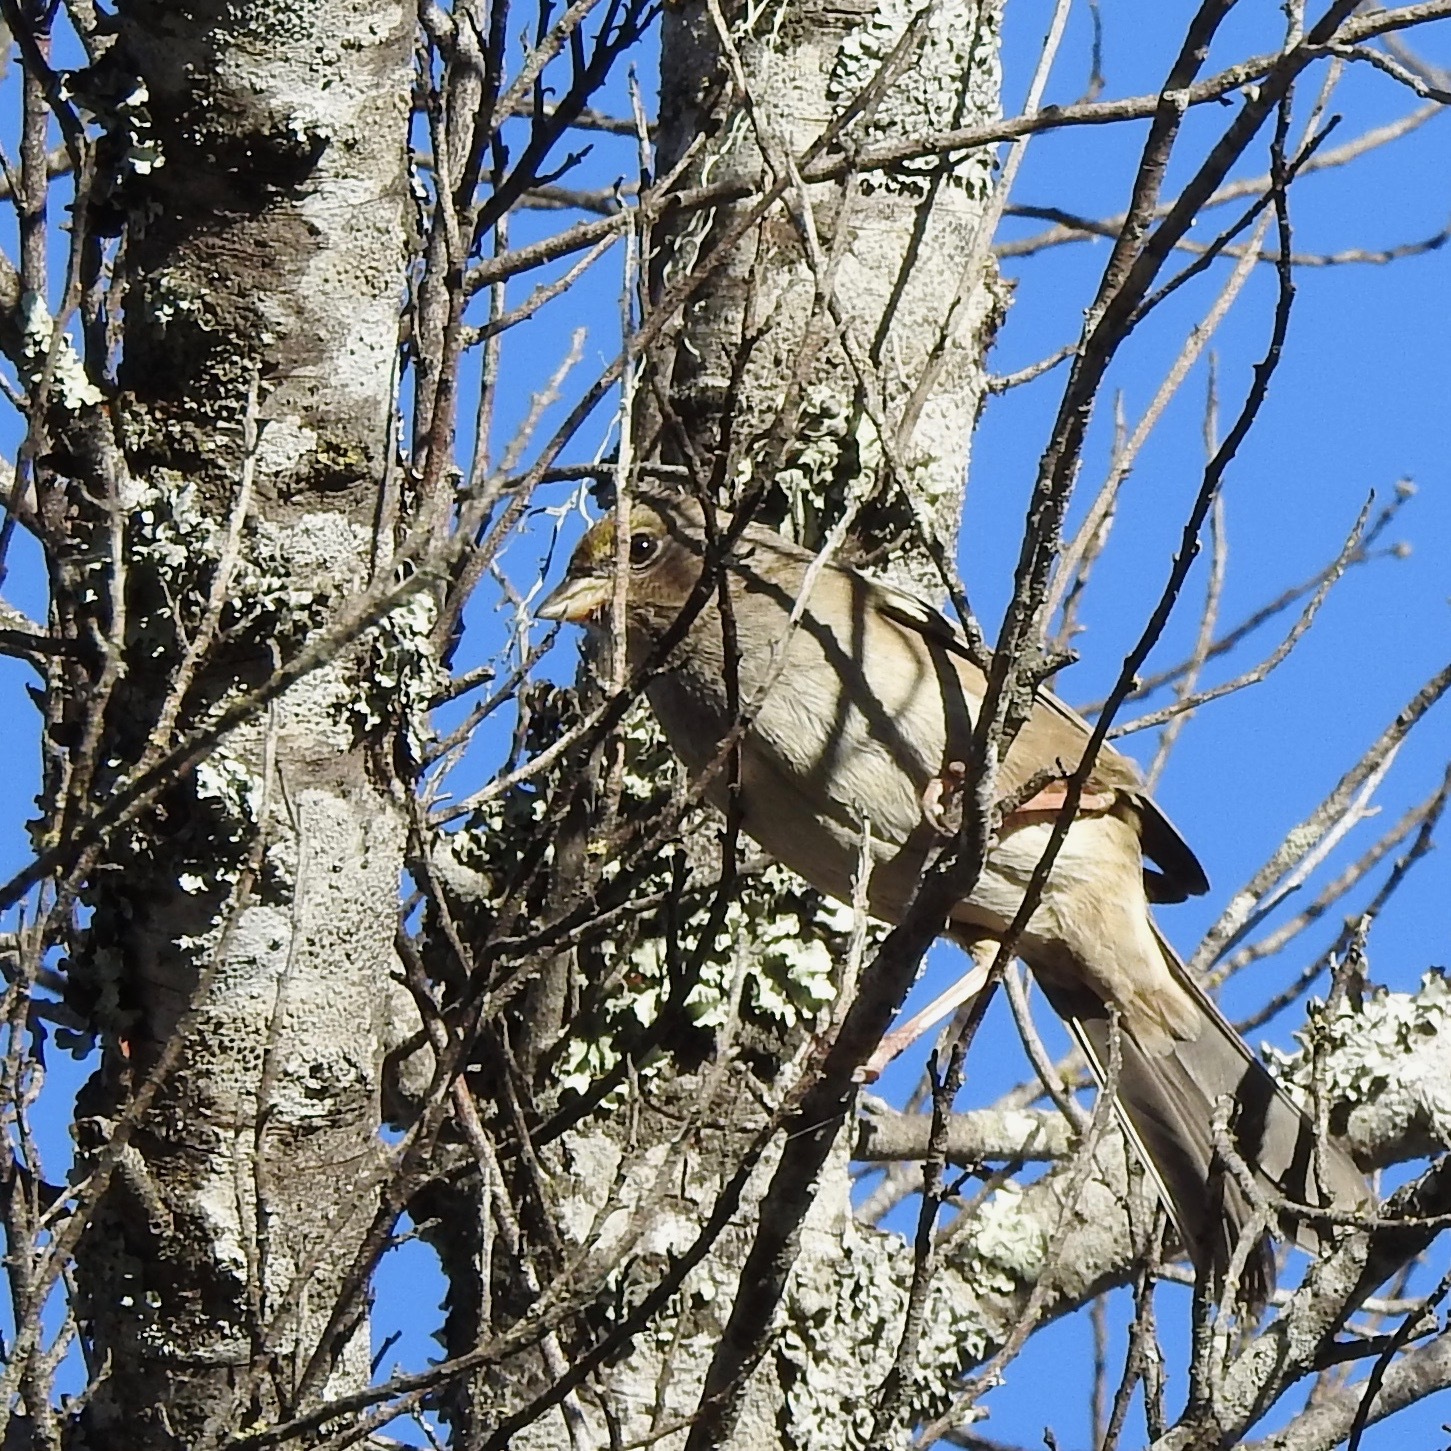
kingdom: Animalia
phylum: Chordata
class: Aves
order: Passeriformes
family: Passerellidae
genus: Melozone
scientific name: Melozone crissalis
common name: California towhee
